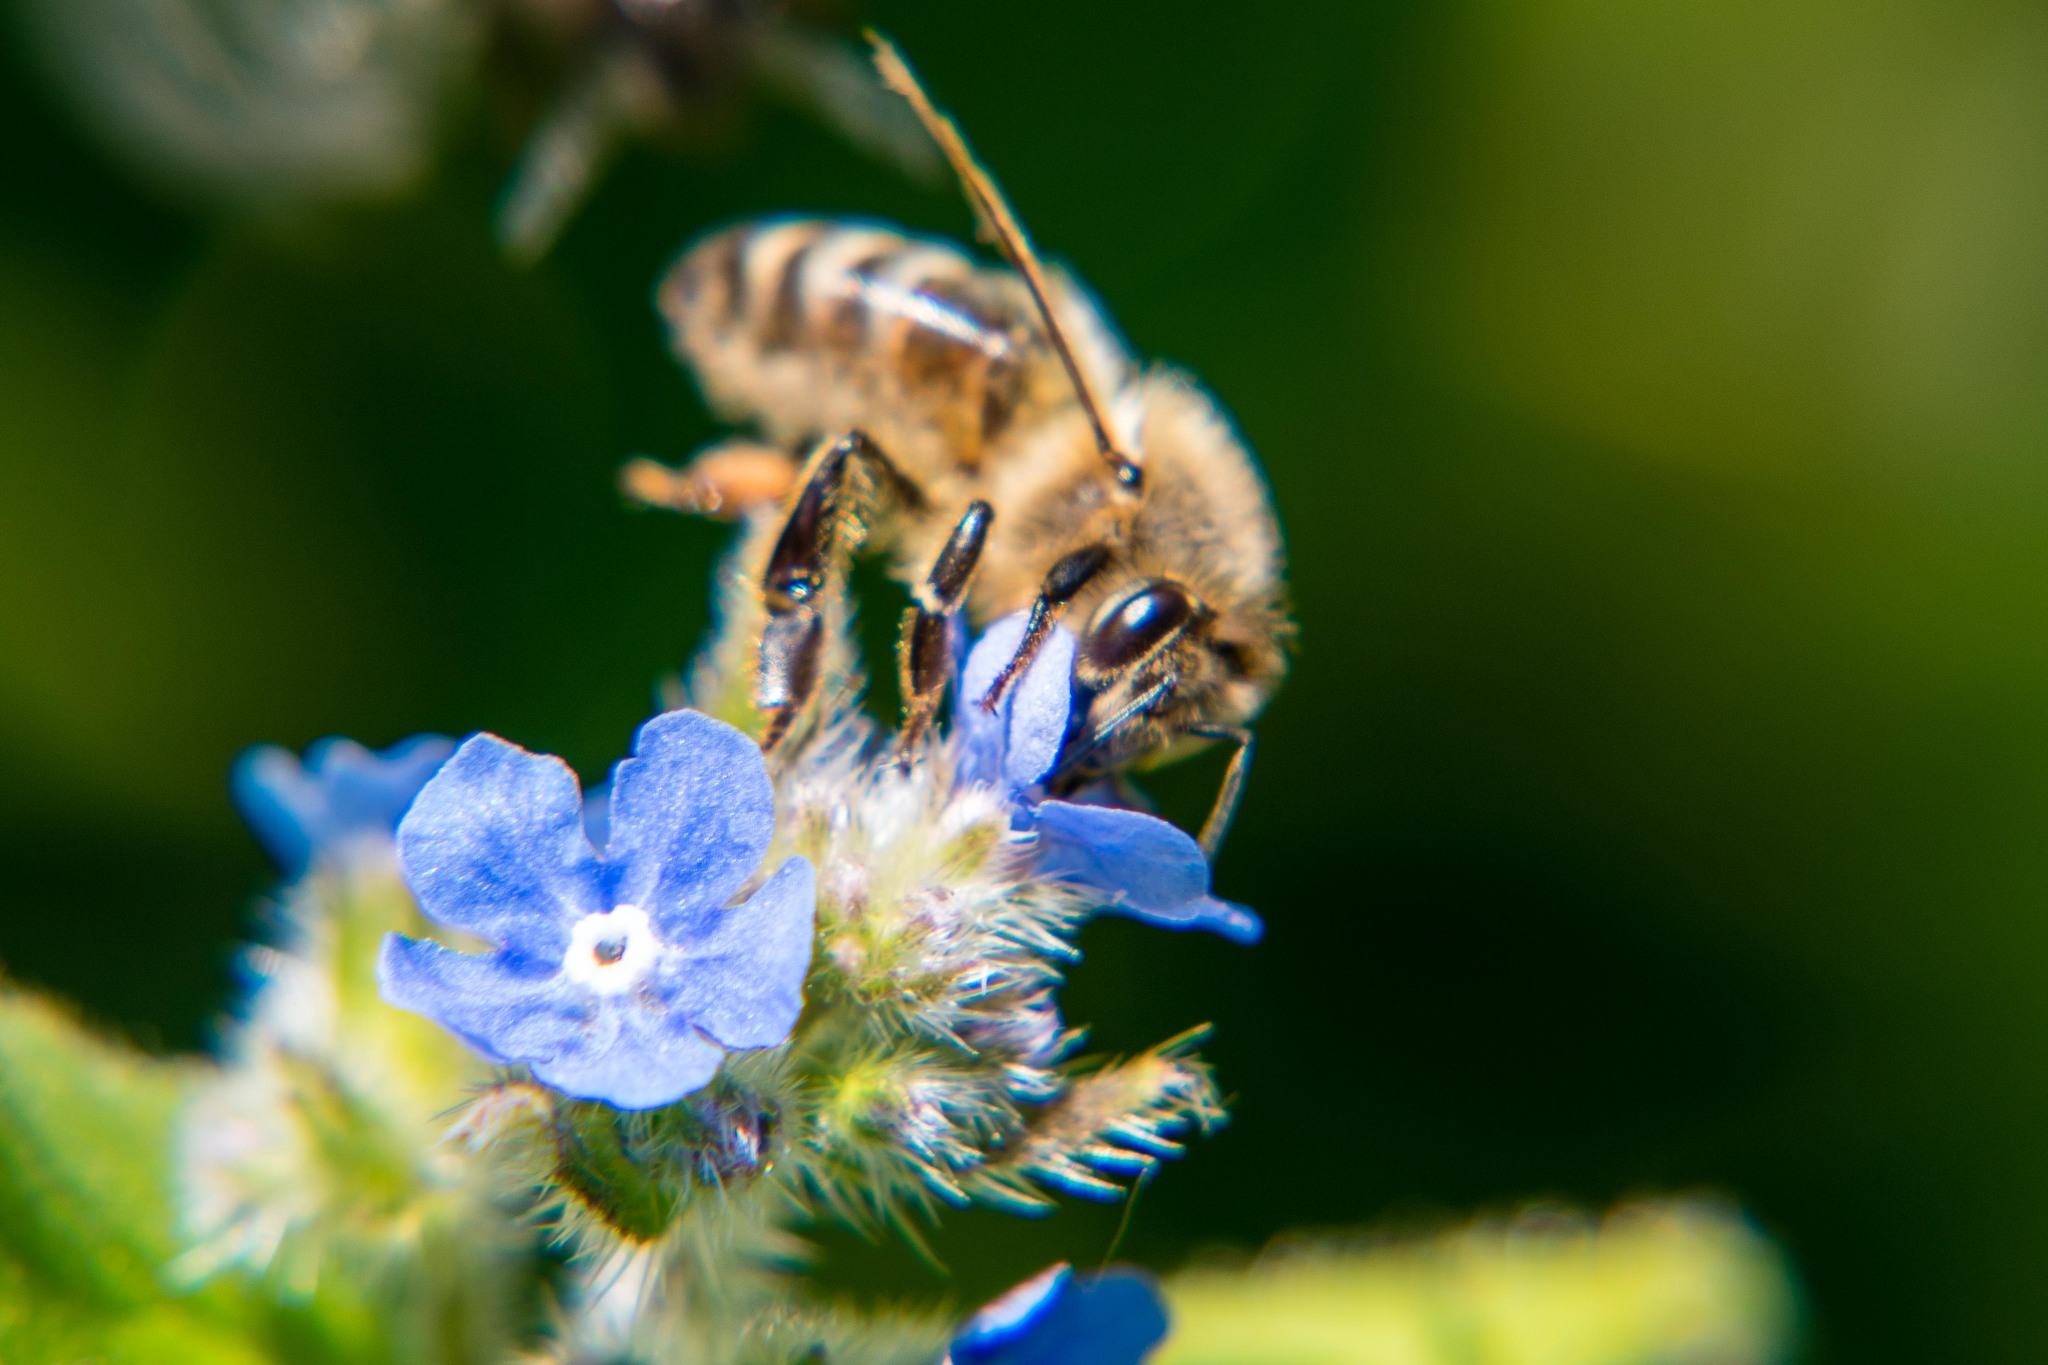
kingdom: Animalia
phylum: Arthropoda
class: Insecta
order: Hymenoptera
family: Apidae
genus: Apis
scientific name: Apis mellifera
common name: Honey bee
